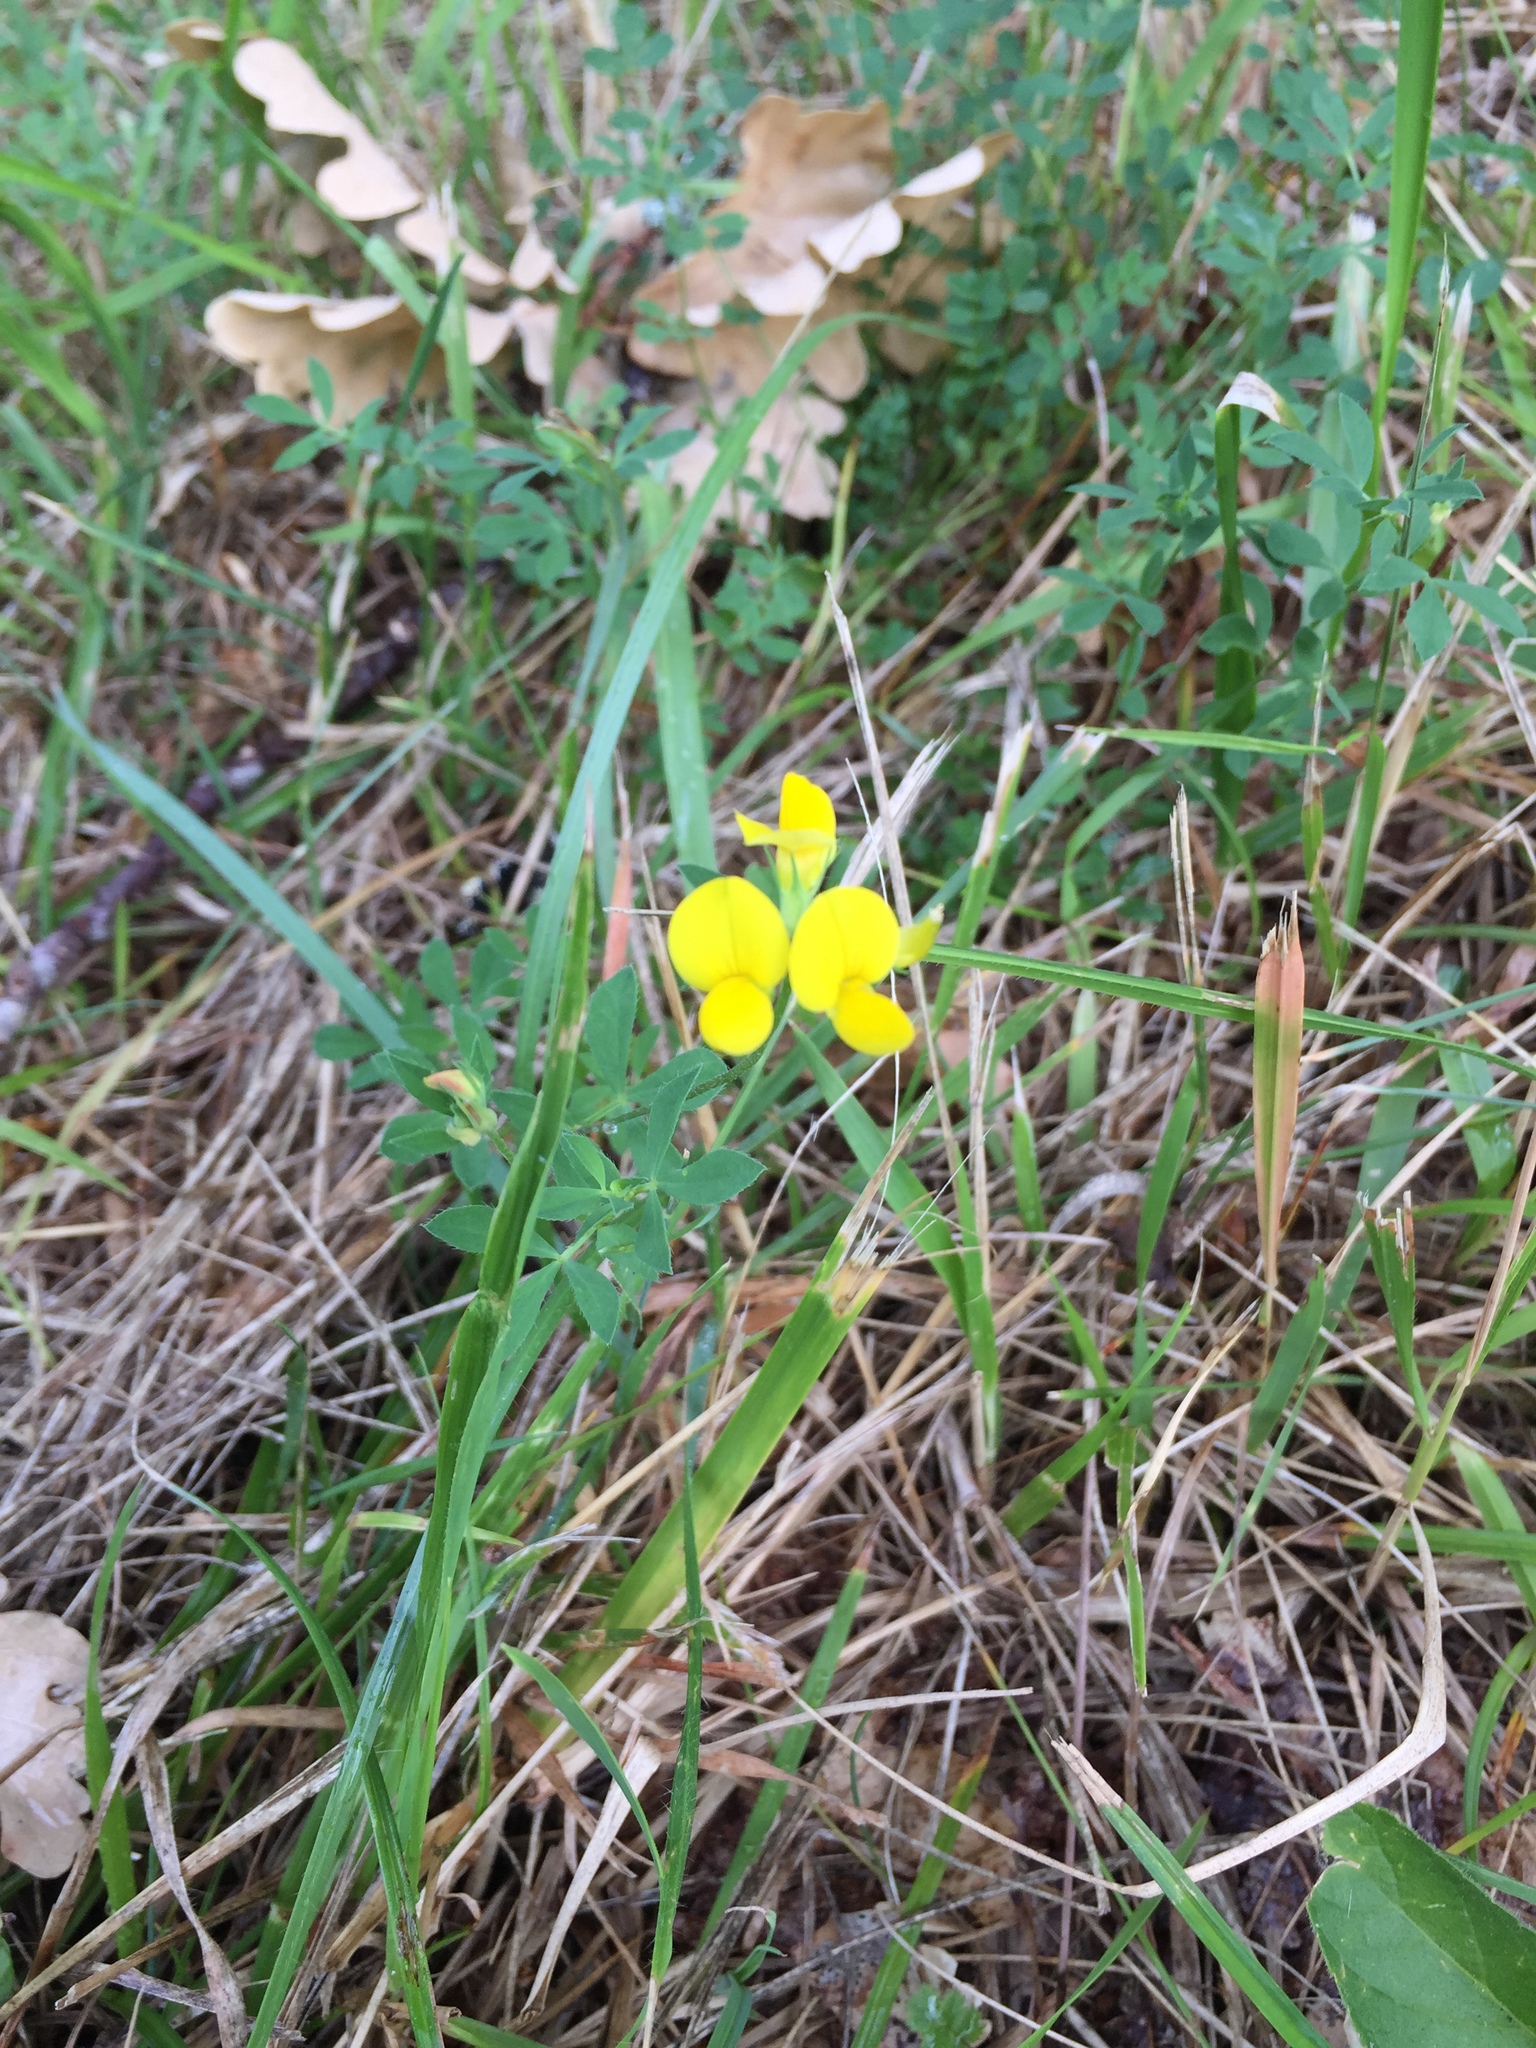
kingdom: Plantae
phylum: Tracheophyta
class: Magnoliopsida
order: Fabales
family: Fabaceae
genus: Lotus
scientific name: Lotus corniculatus
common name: Common bird's-foot-trefoil
